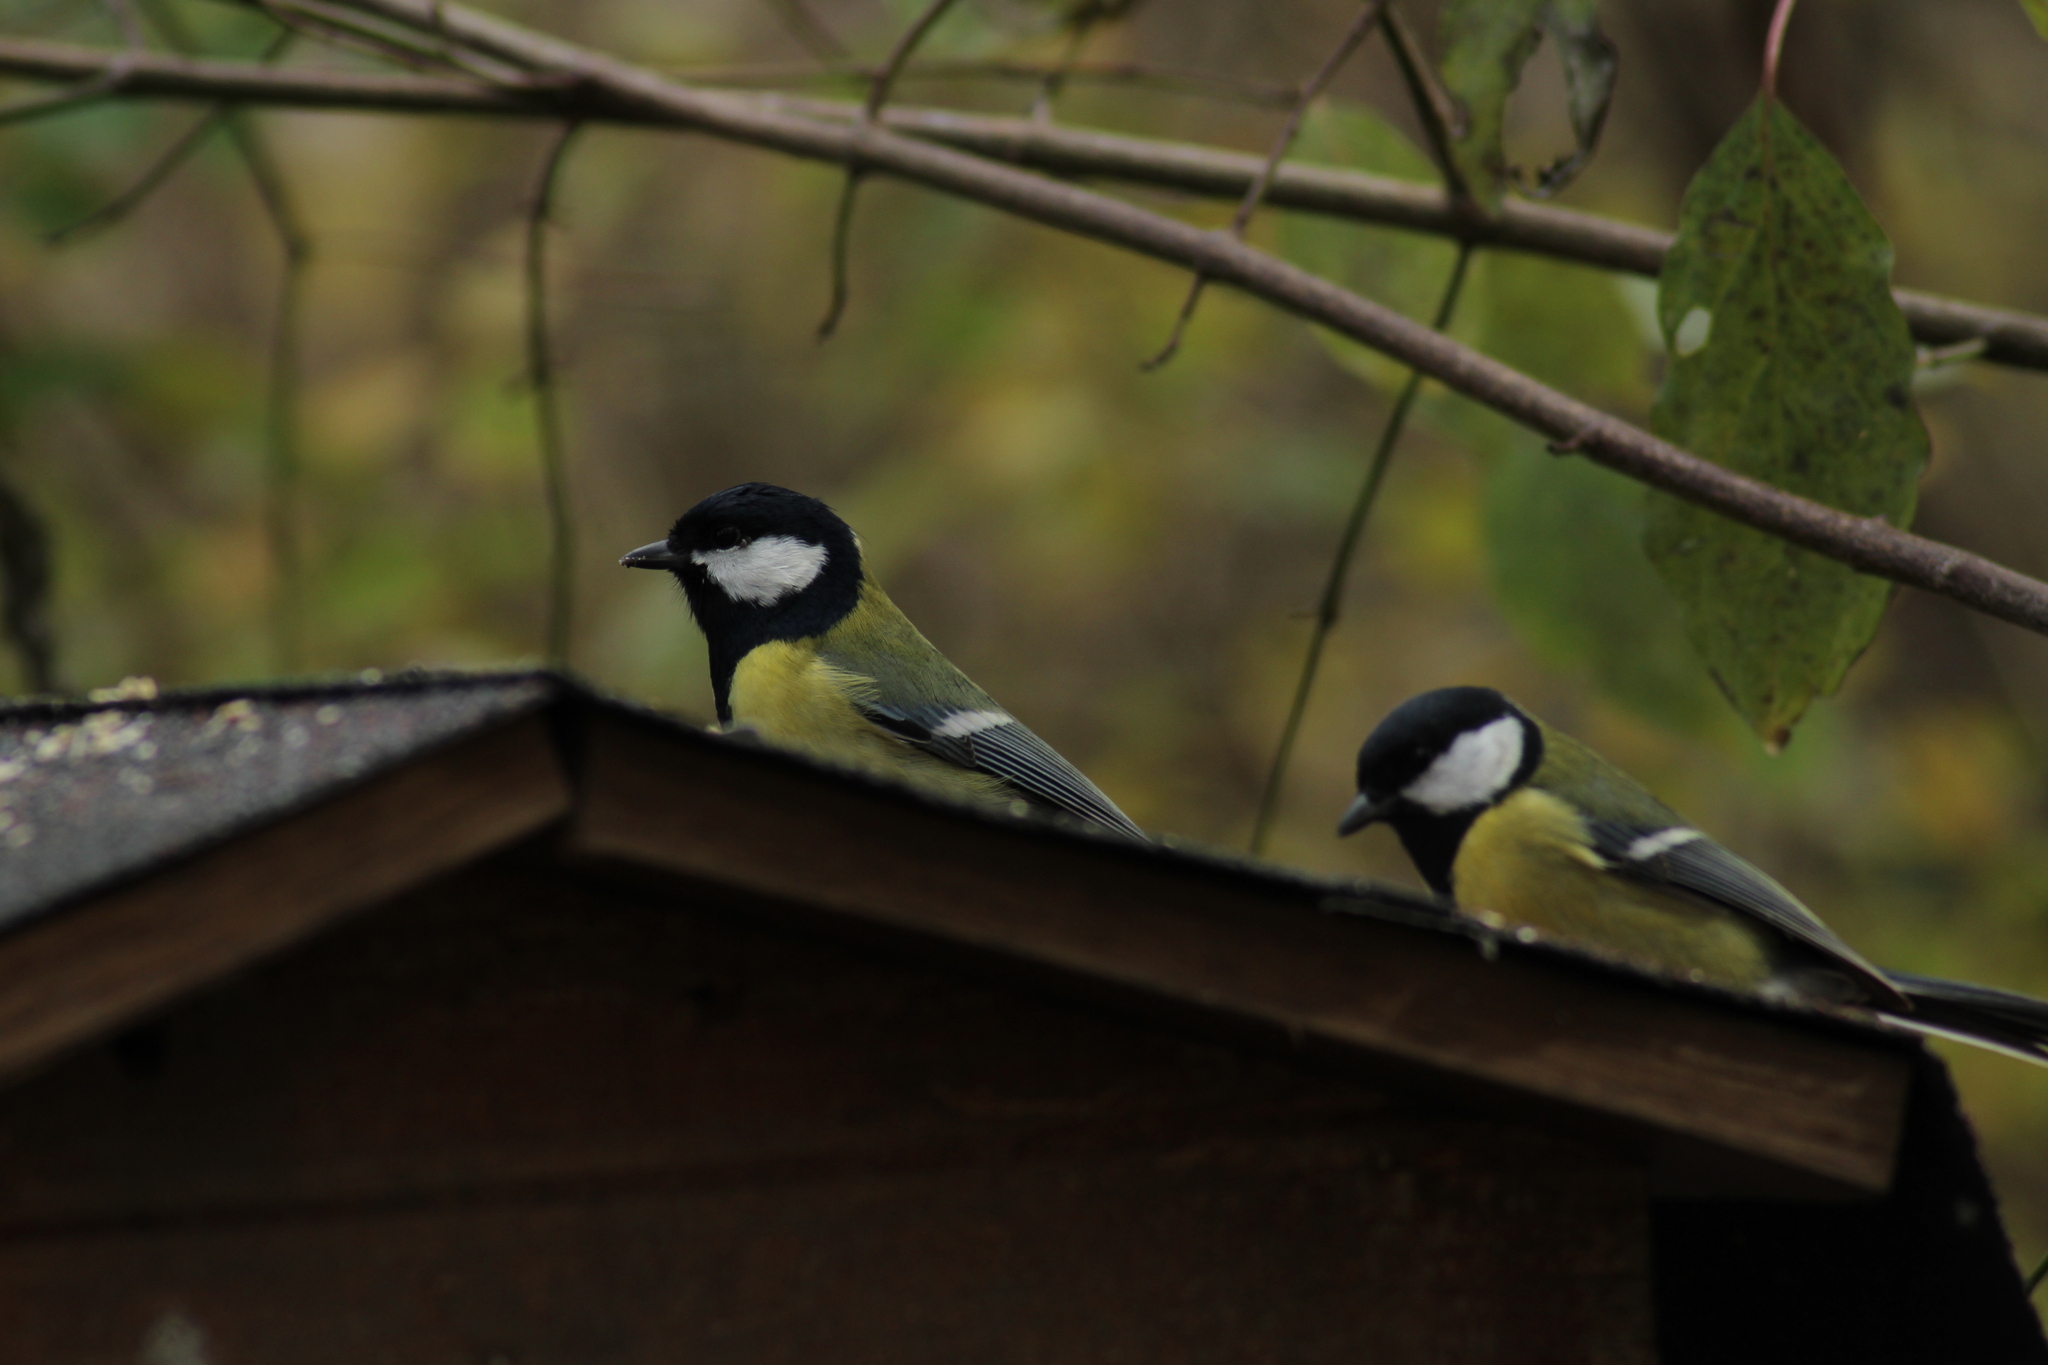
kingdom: Animalia
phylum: Chordata
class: Aves
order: Passeriformes
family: Paridae
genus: Parus
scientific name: Parus major
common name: Great tit
